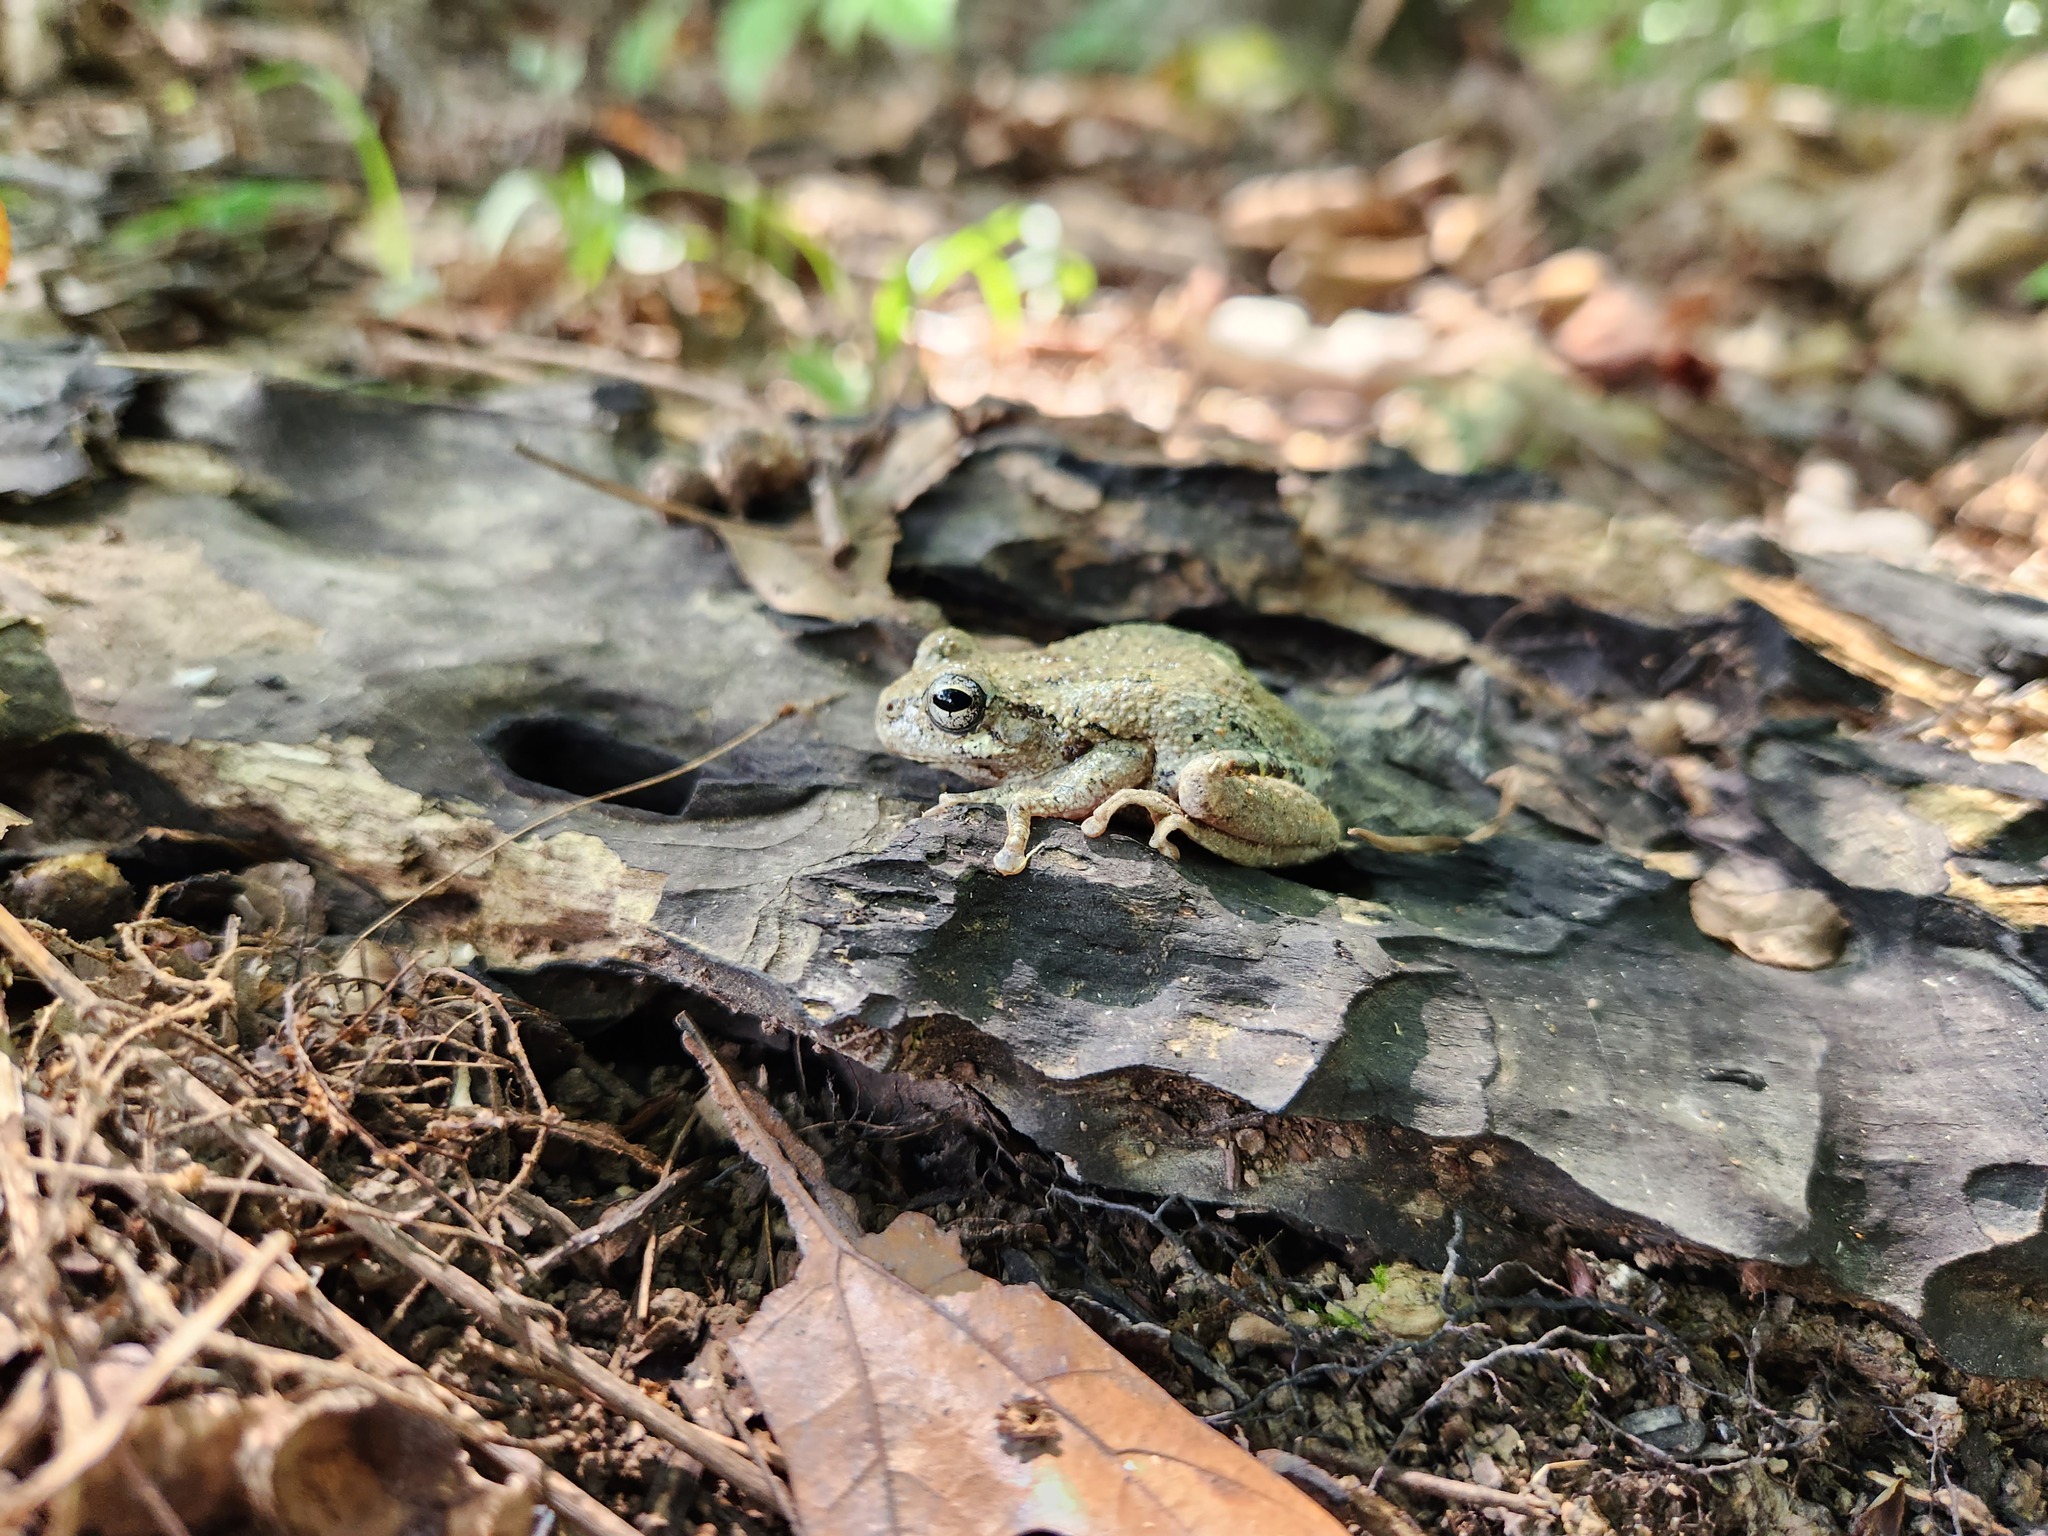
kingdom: Animalia
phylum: Chordata
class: Amphibia
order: Anura
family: Hylidae
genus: Dryophytes
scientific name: Dryophytes chrysoscelis
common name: Cope's gray treefrog
